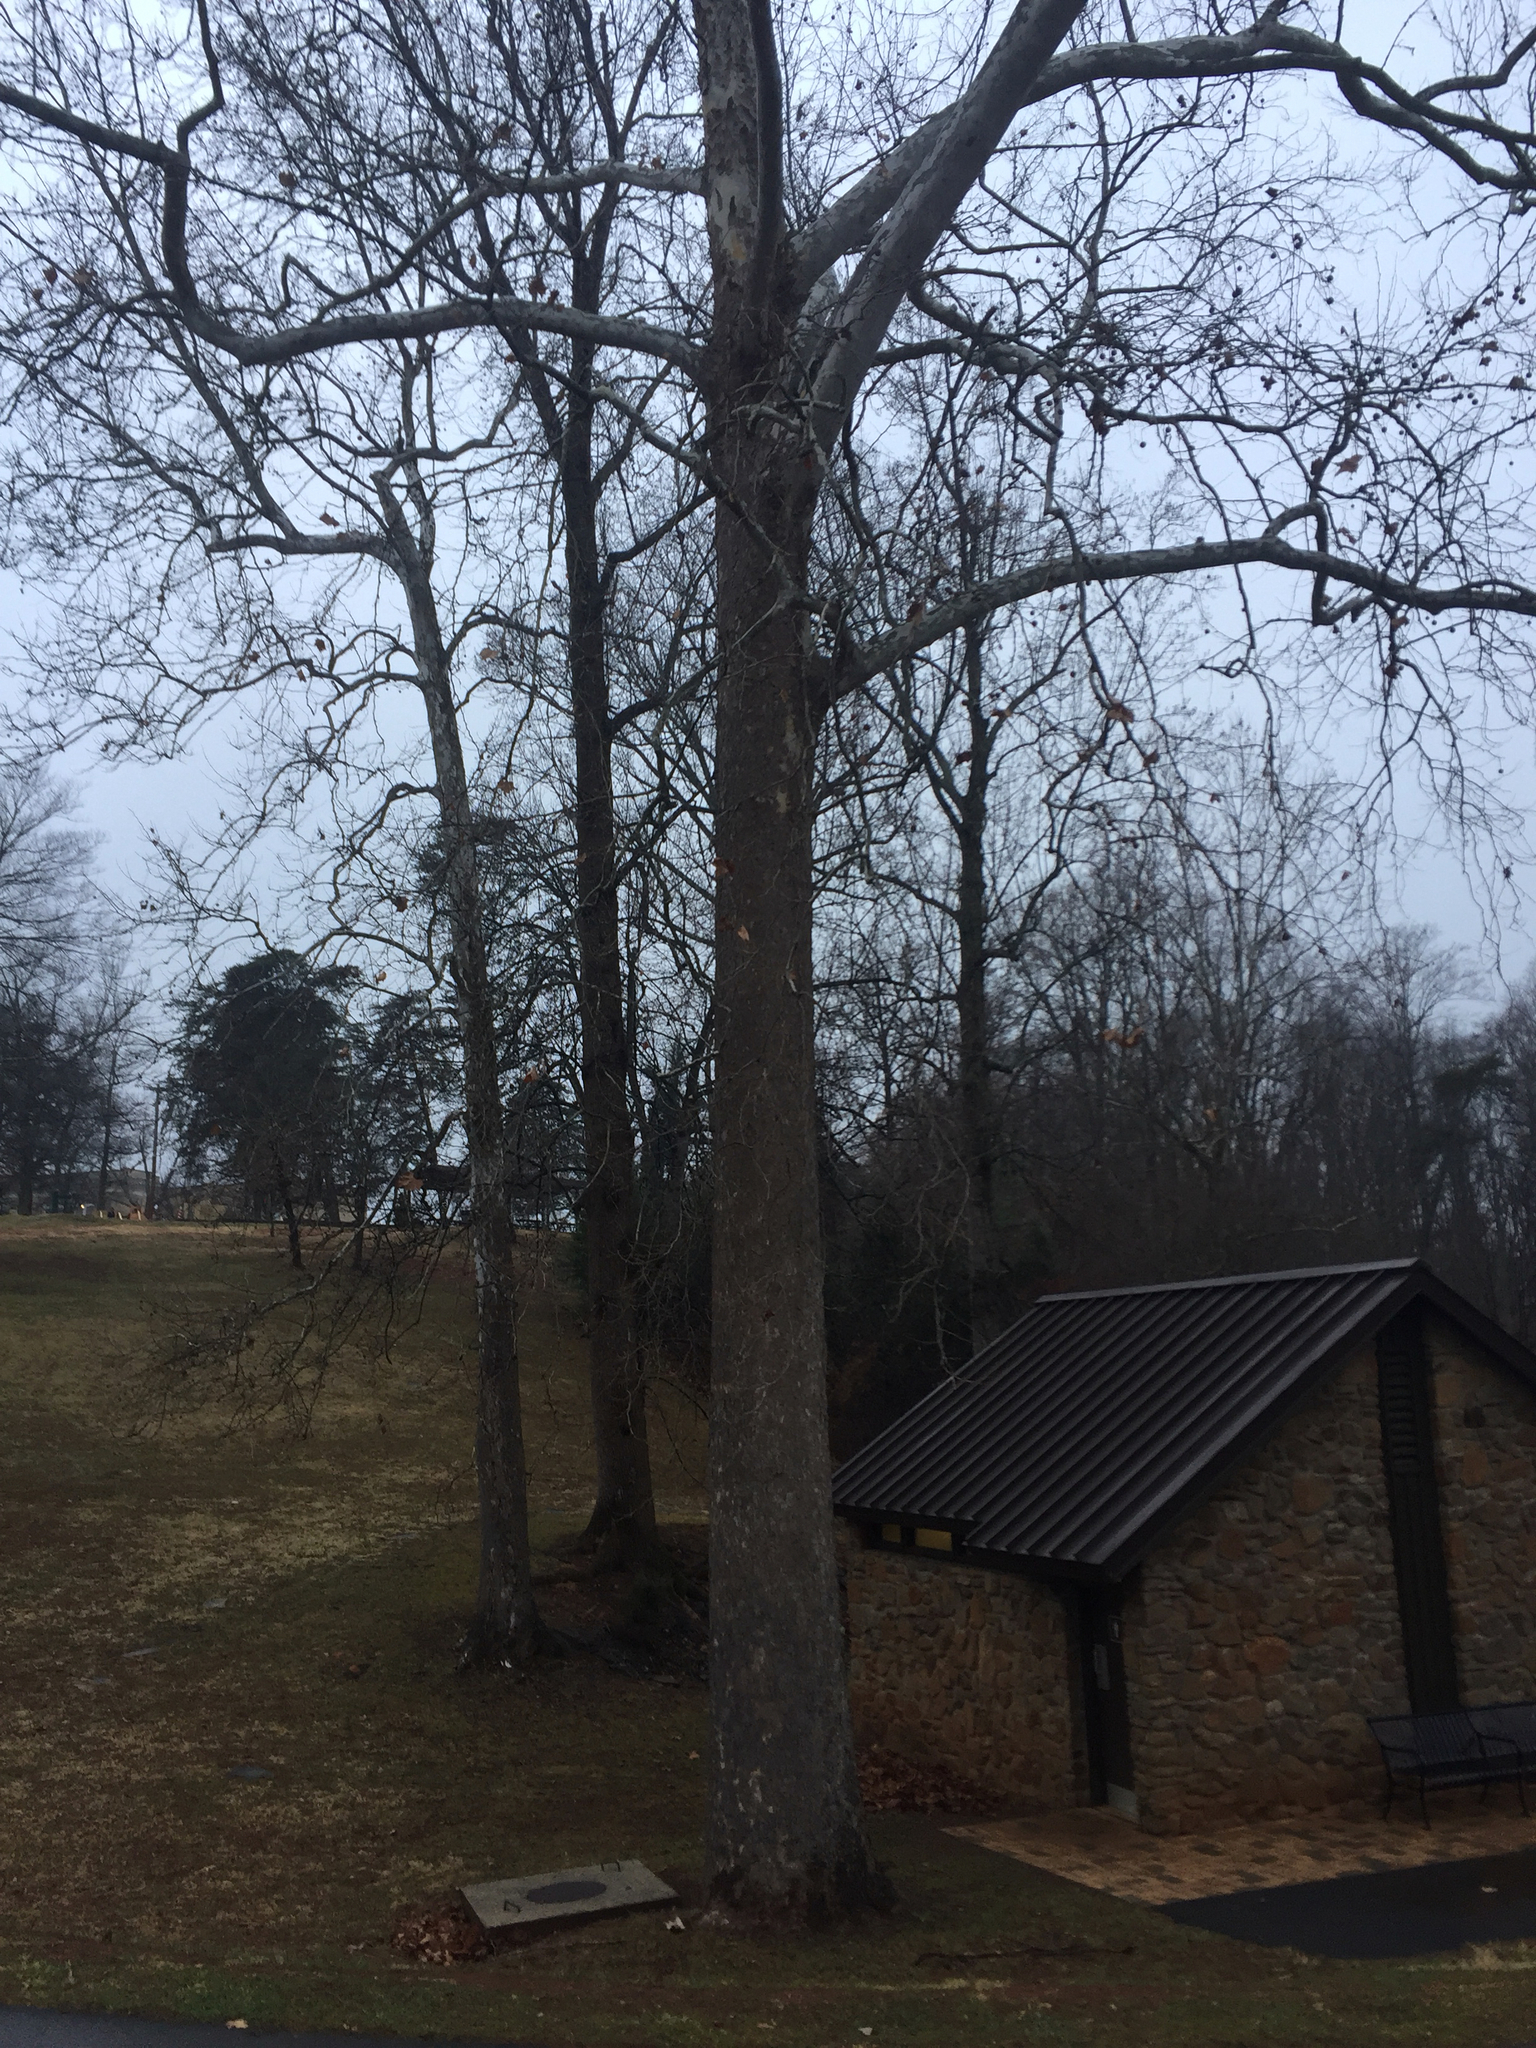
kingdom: Plantae
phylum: Tracheophyta
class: Magnoliopsida
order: Proteales
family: Platanaceae
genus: Platanus
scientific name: Platanus occidentalis
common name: American sycamore
